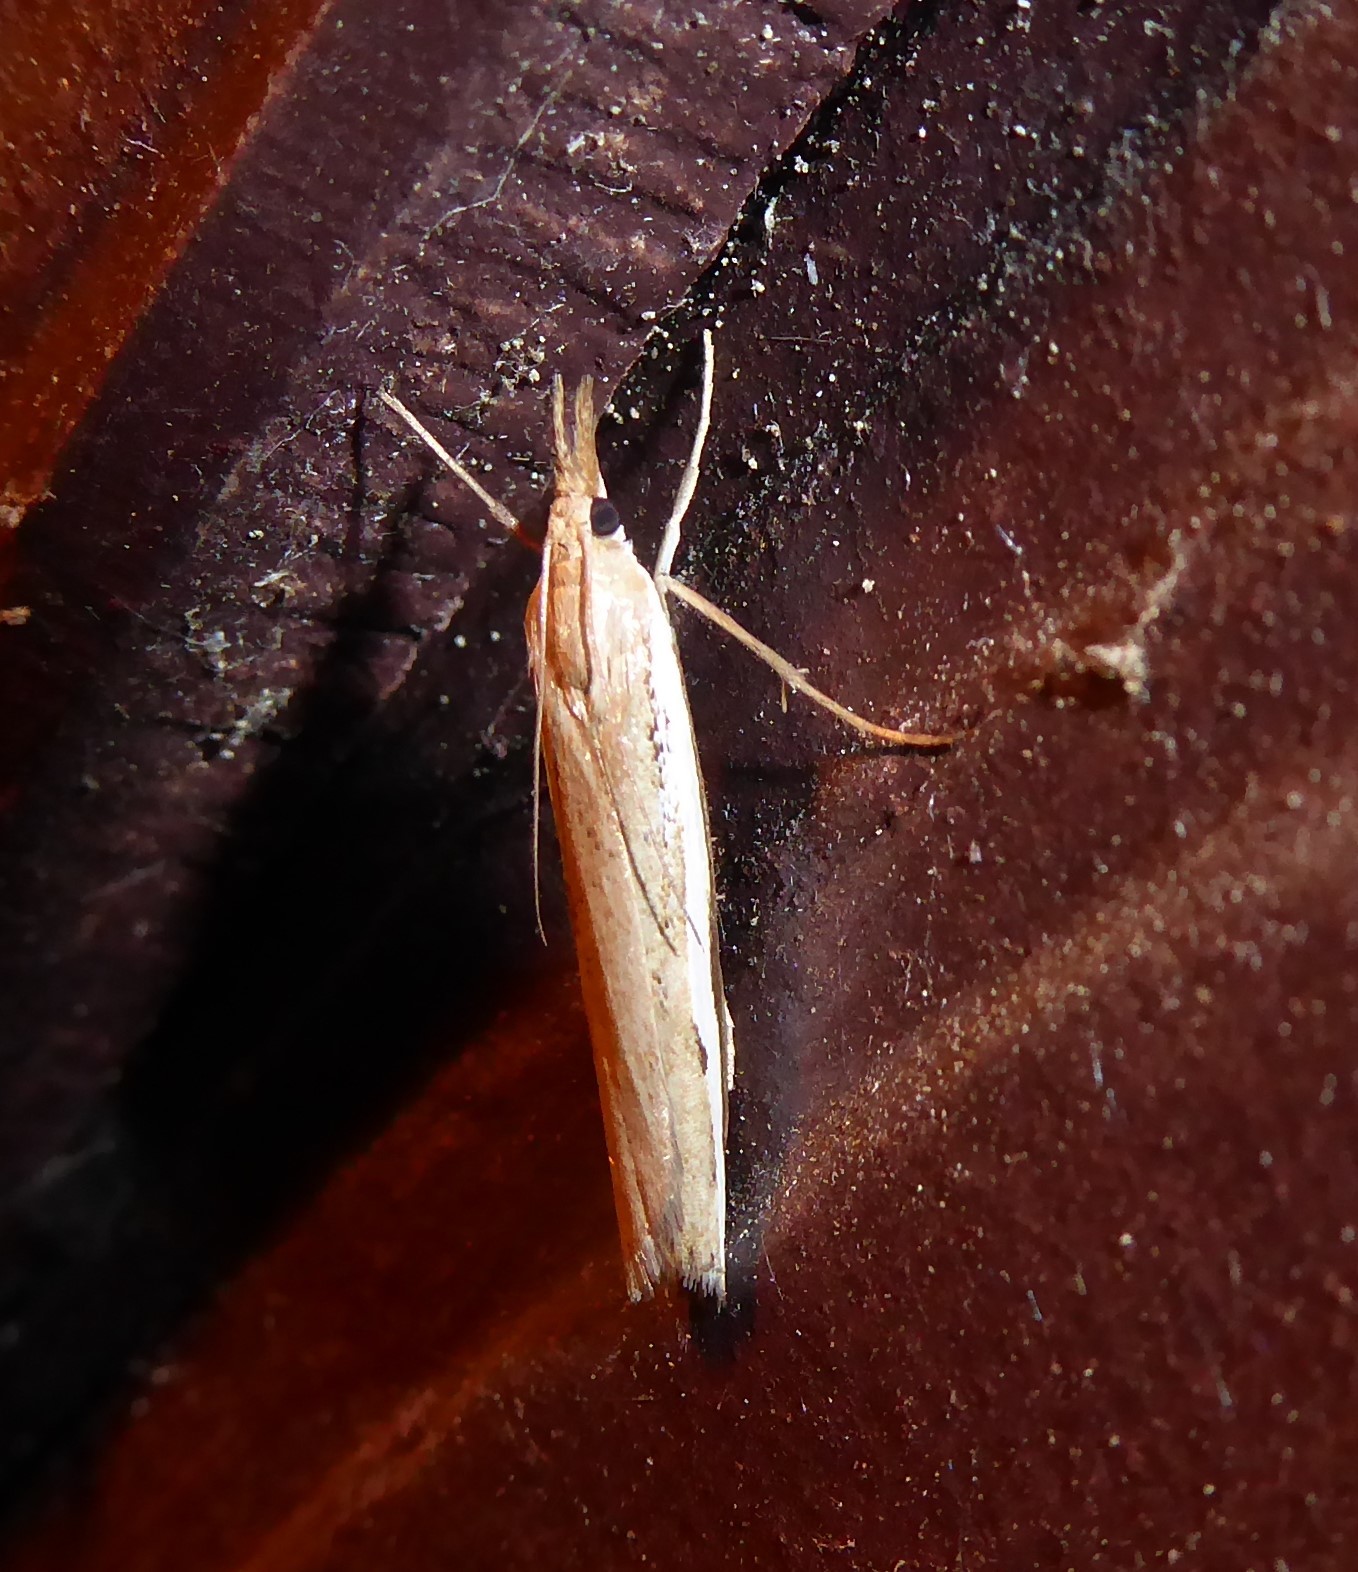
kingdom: Animalia
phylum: Arthropoda
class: Insecta
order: Lepidoptera
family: Crambidae
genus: Orocrambus
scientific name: Orocrambus flexuosellus
